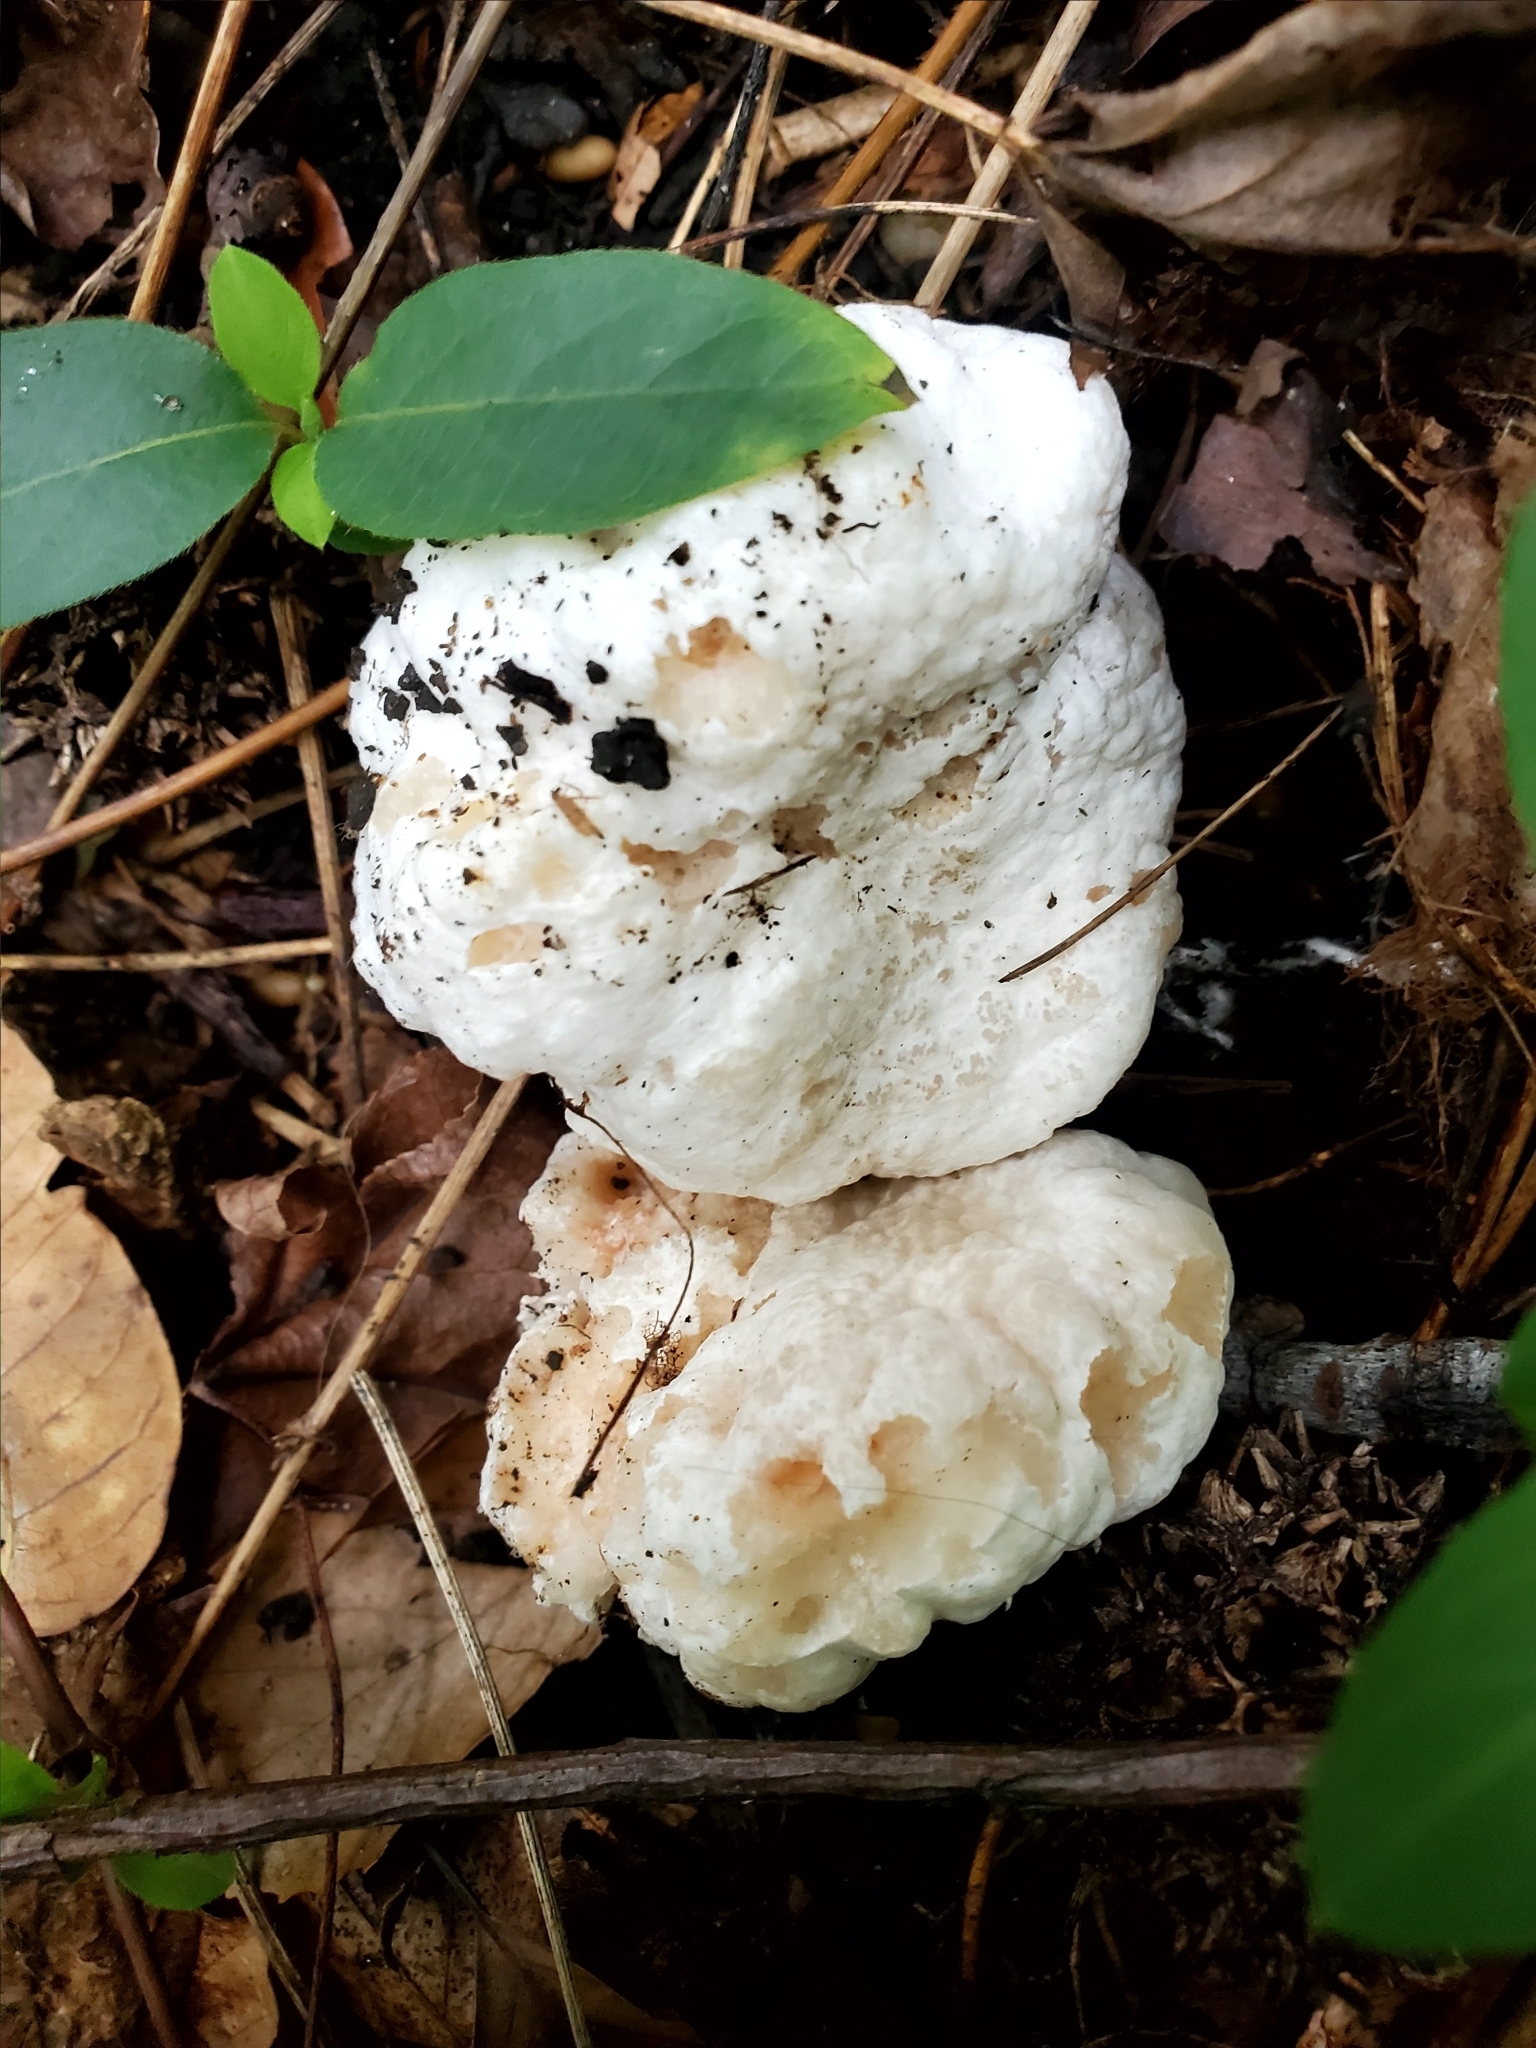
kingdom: Fungi
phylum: Basidiomycota
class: Agaricomycetes
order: Agaricales
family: Entolomataceae
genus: Entoloma
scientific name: Entoloma abortivum
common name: Aborted entoloma
